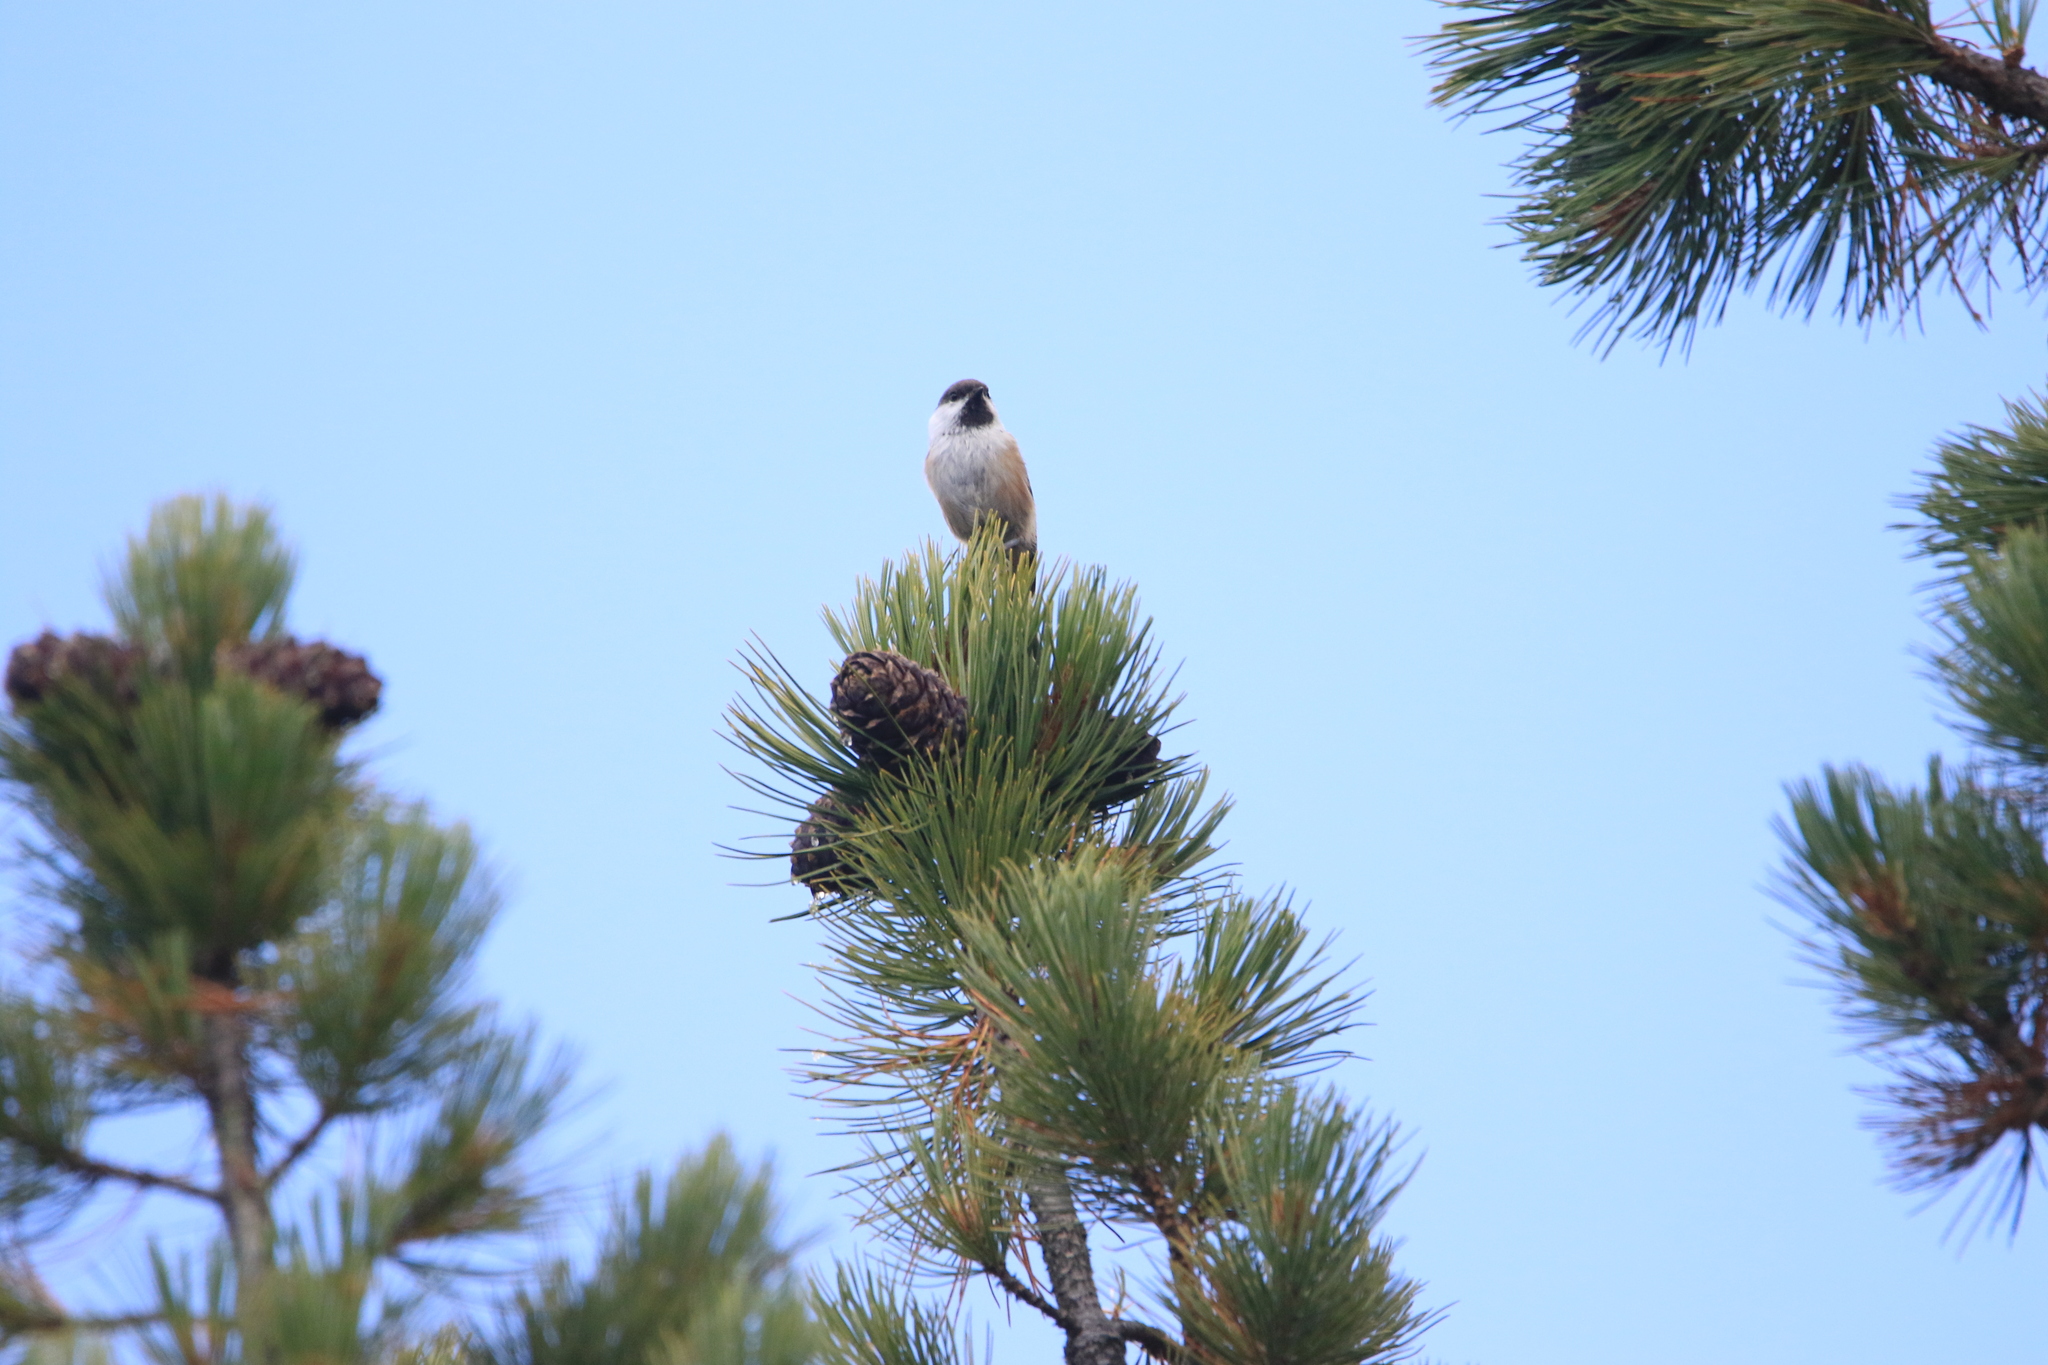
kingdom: Animalia
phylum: Chordata
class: Aves
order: Passeriformes
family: Paridae
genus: Poecile
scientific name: Poecile cinctus
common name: Gray-headed chickadee
